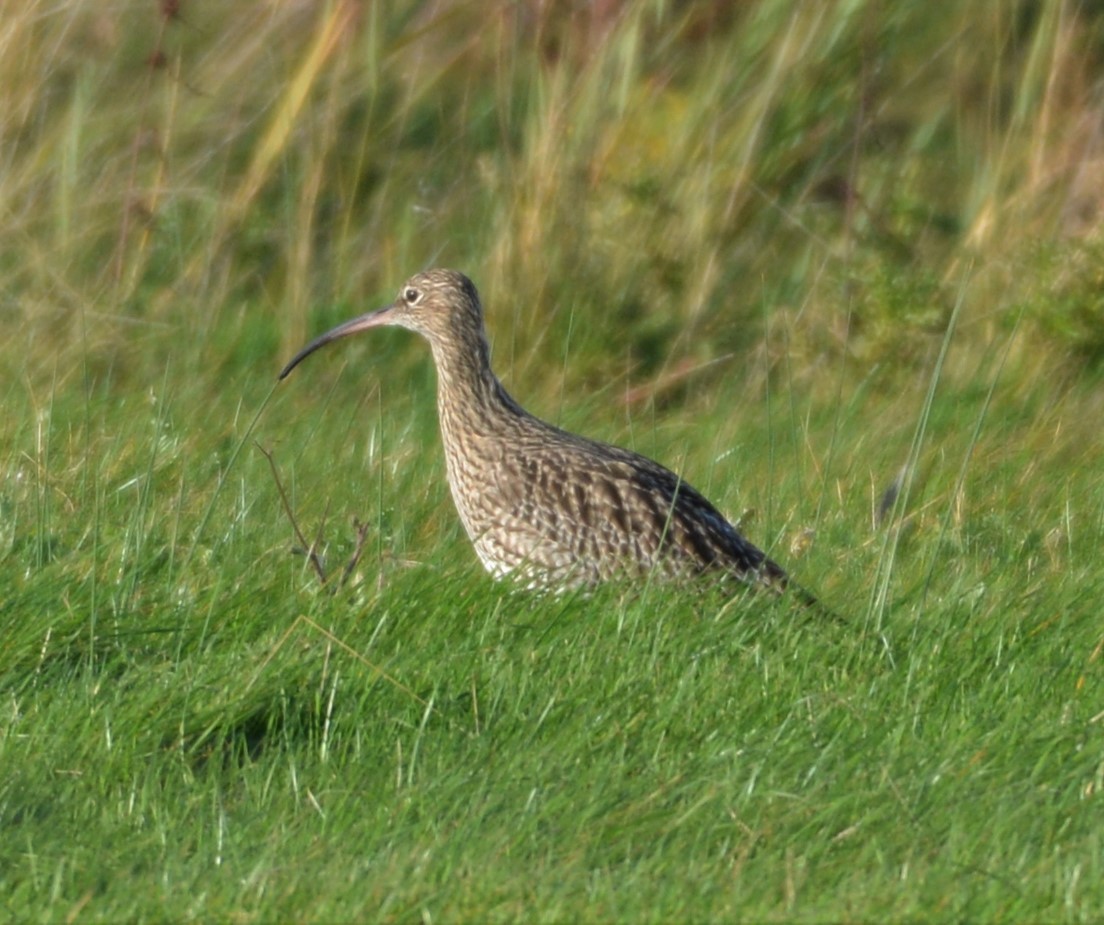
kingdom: Animalia
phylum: Chordata
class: Aves
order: Charadriiformes
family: Scolopacidae
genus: Numenius
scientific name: Numenius arquata
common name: Eurasian curlew
